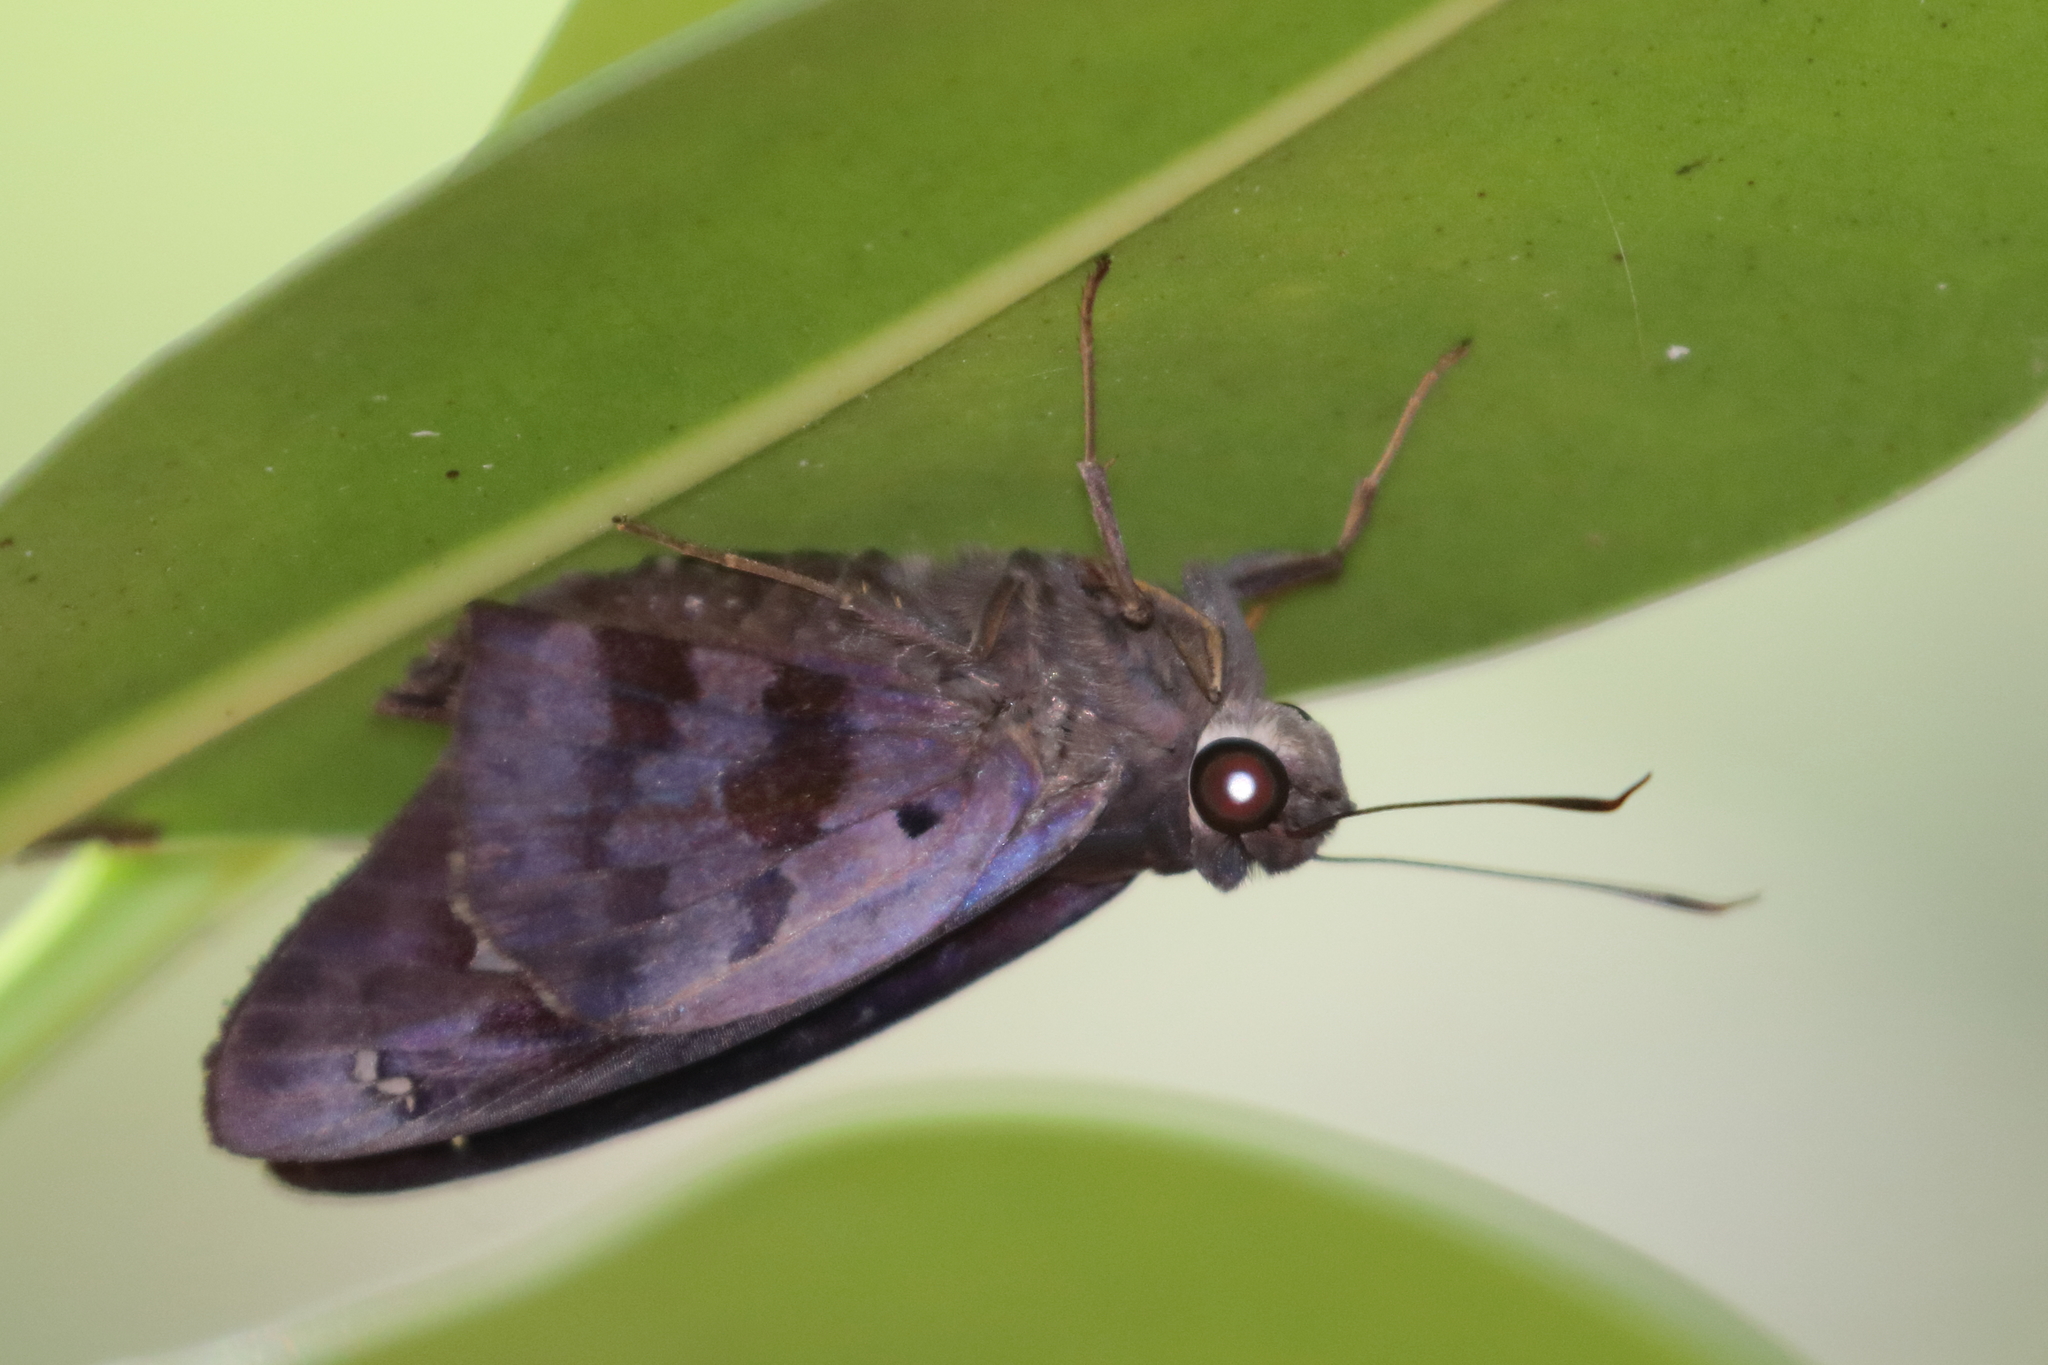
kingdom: Animalia
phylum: Arthropoda
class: Insecta
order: Lepidoptera
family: Hesperiidae
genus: Polygonus
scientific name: Polygonus leo
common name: Hammoch skipper
